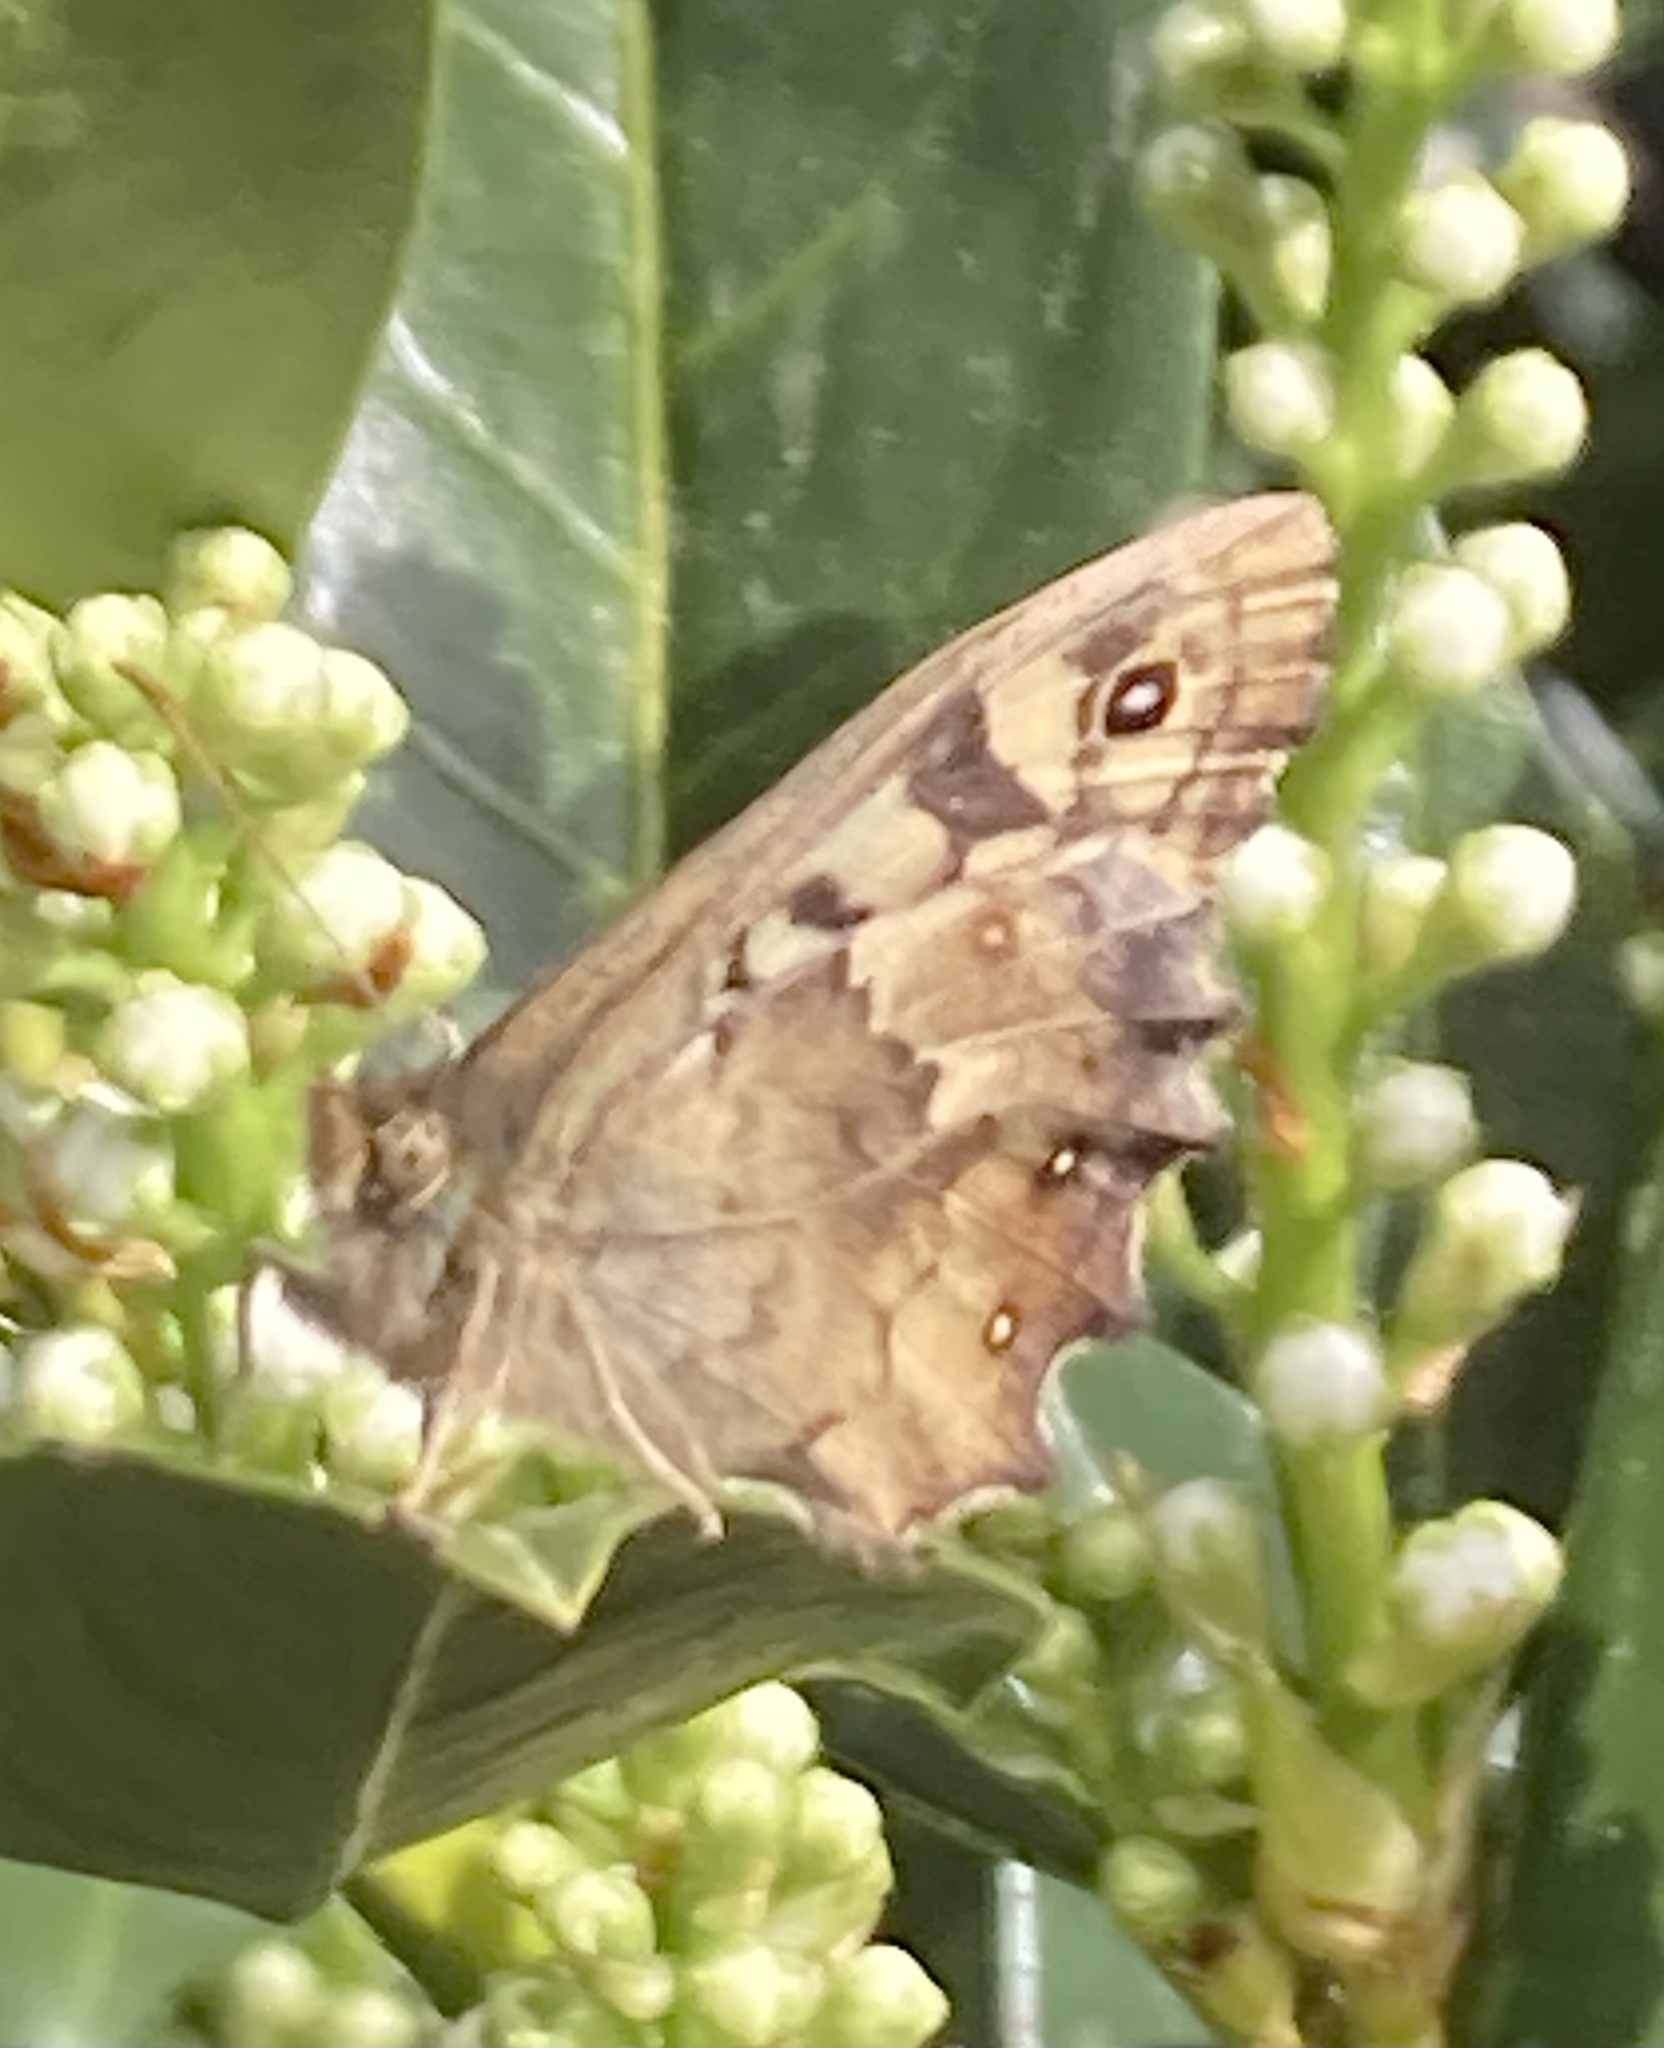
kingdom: Animalia
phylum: Arthropoda
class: Insecta
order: Lepidoptera
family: Nymphalidae
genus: Pararge
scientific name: Pararge aegeria
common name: Speckled wood
